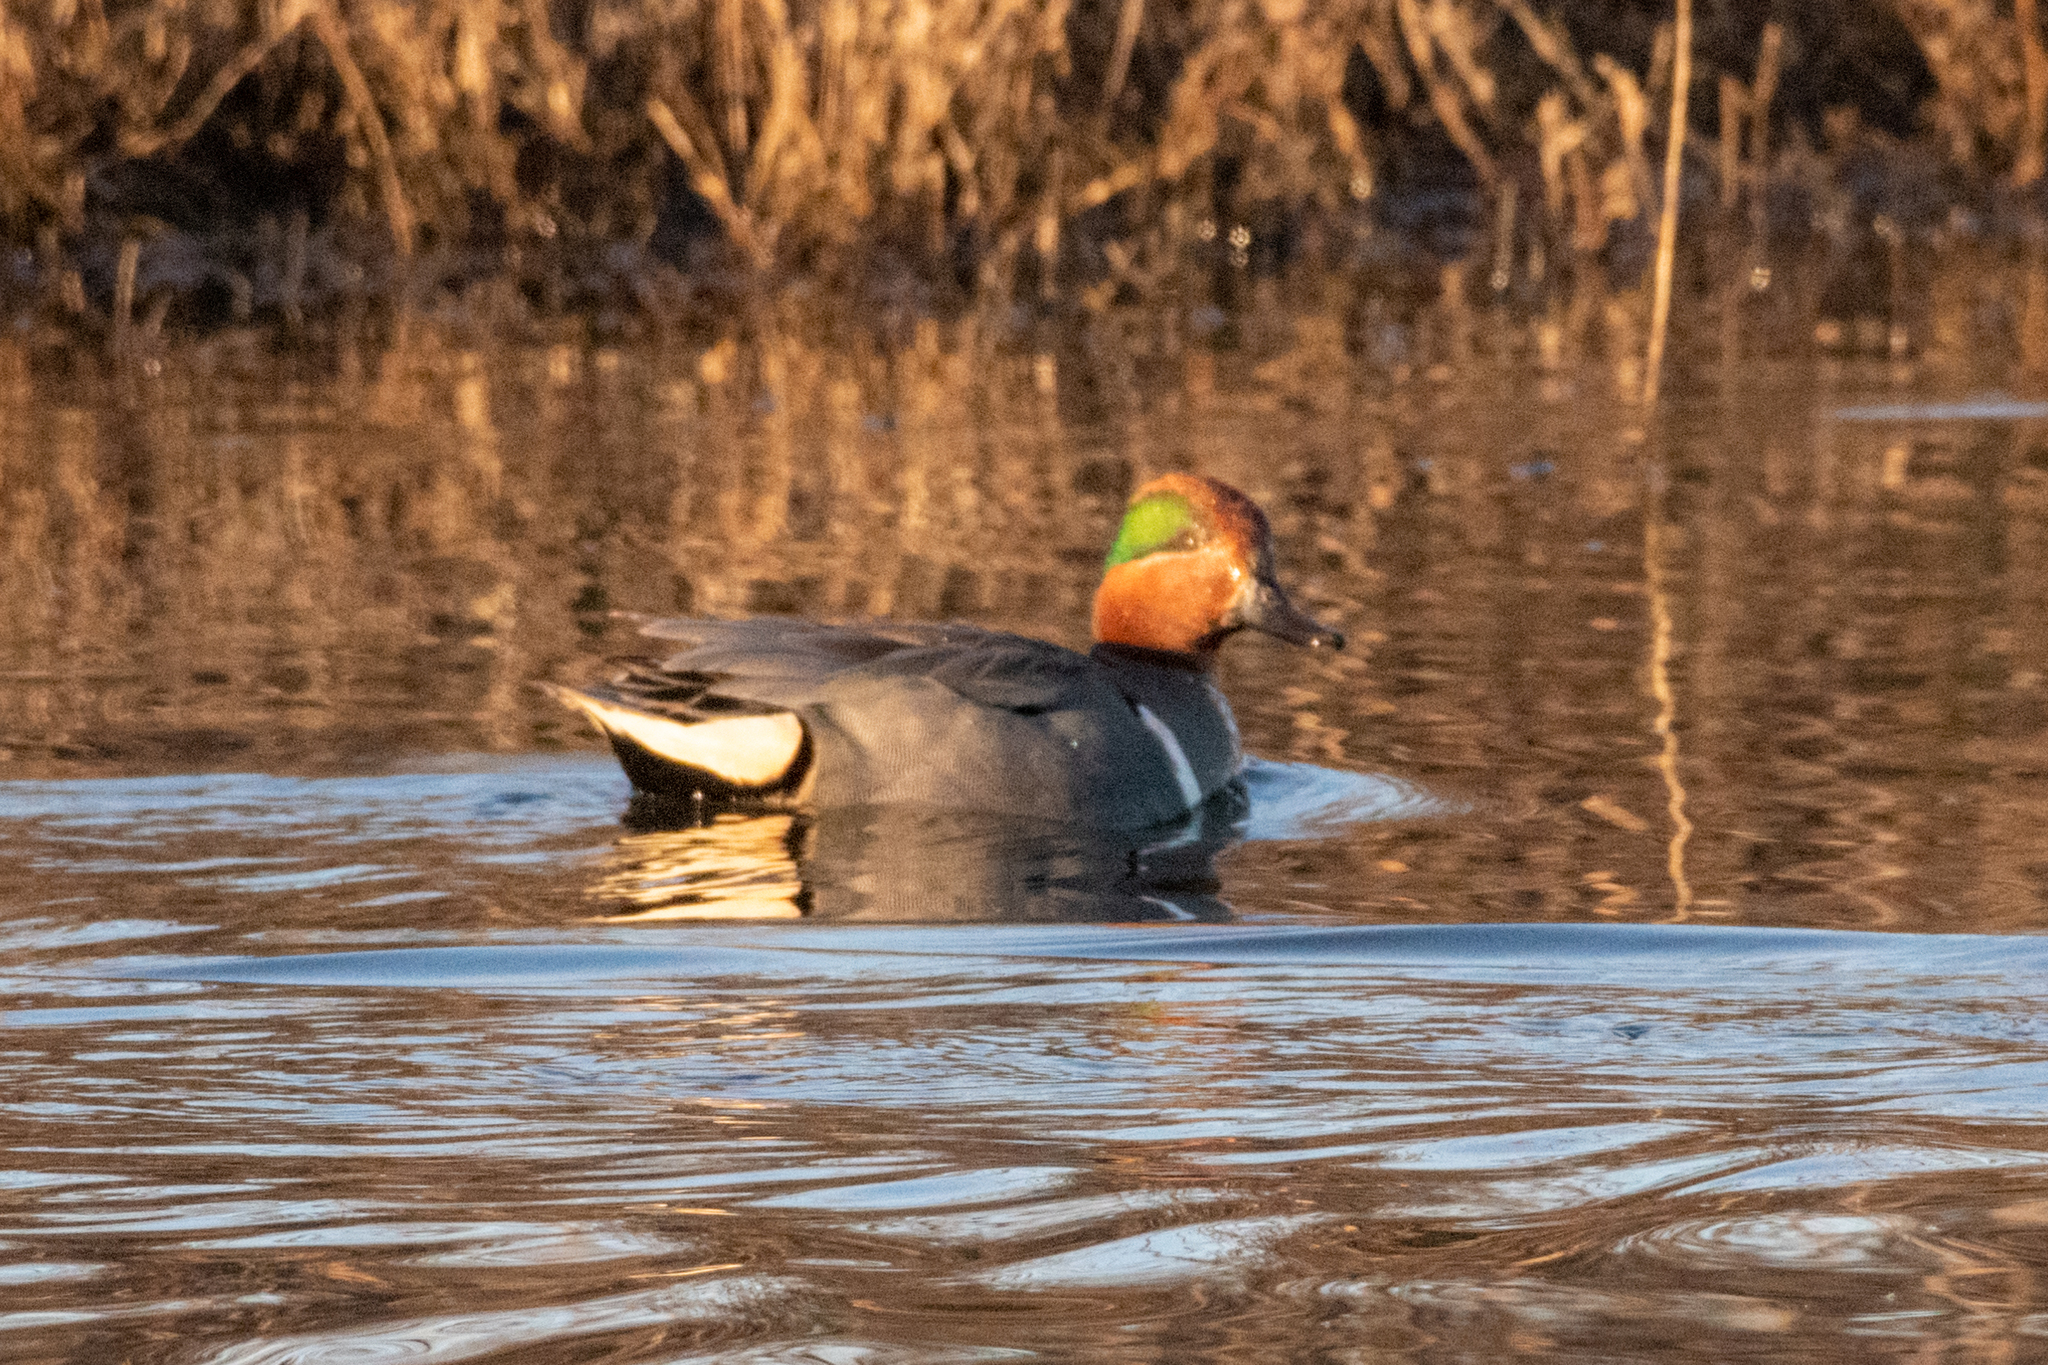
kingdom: Animalia
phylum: Chordata
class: Aves
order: Anseriformes
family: Anatidae
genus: Anas
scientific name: Anas crecca
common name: Eurasian teal
